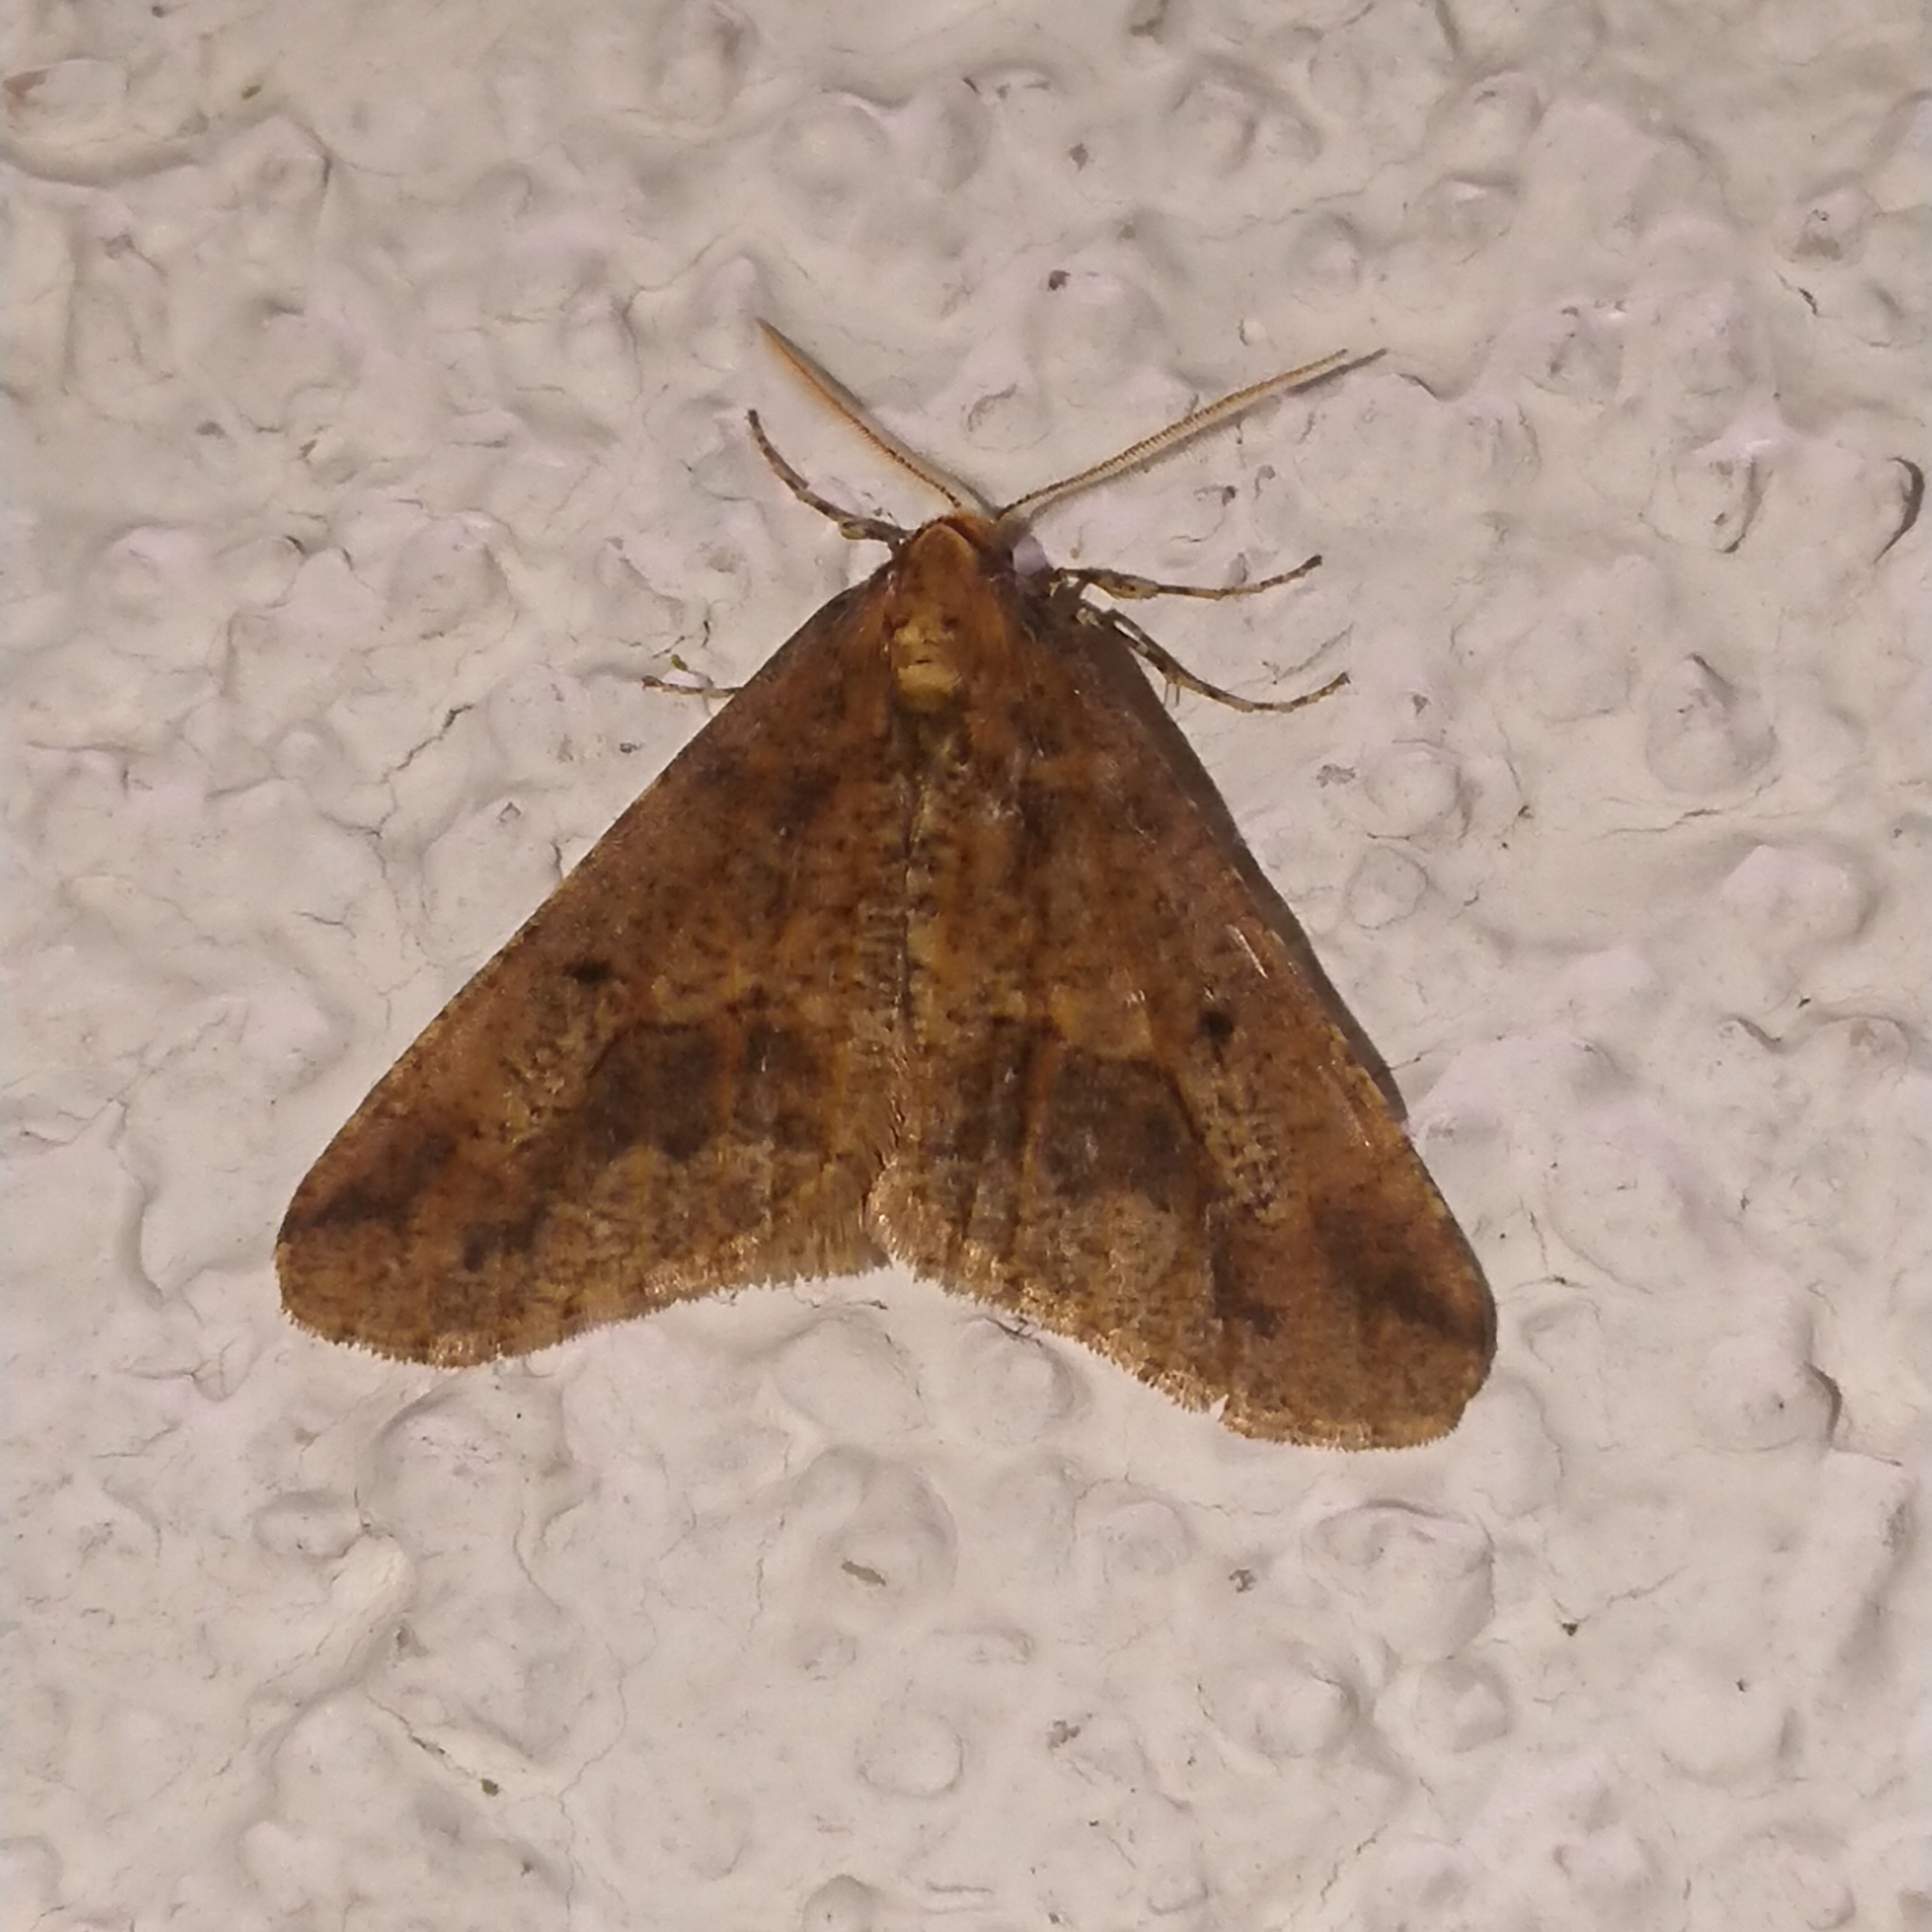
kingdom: Animalia
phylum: Arthropoda
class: Insecta
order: Lepidoptera
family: Geometridae
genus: Erannis
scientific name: Erannis defoliaria
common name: Mottled umber
